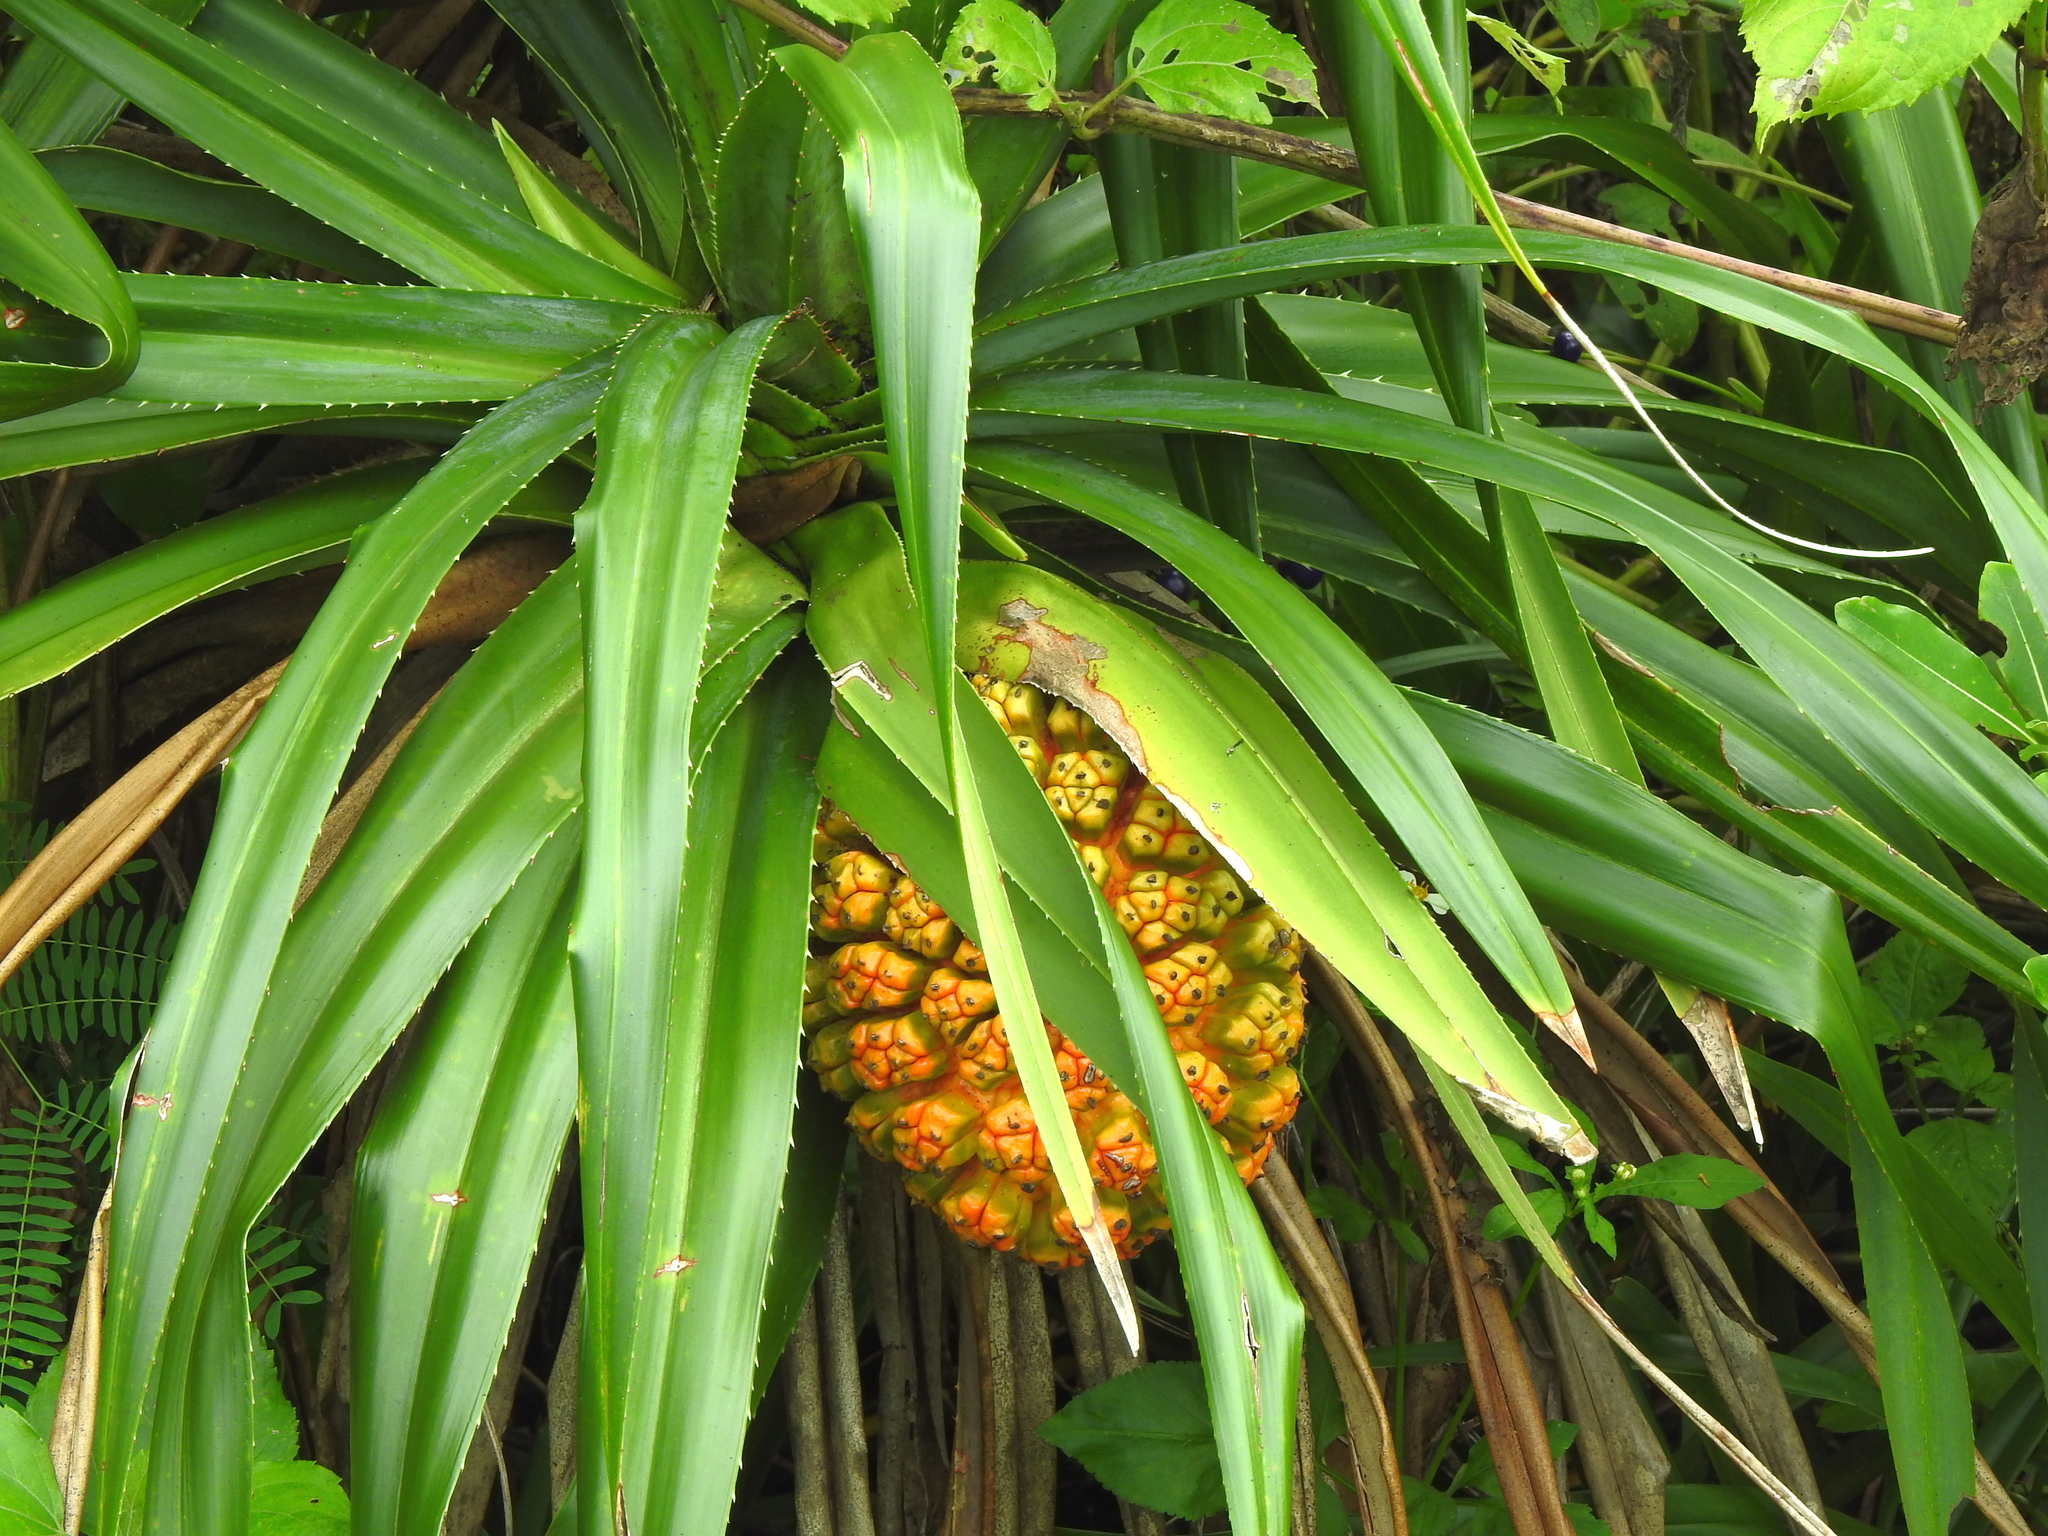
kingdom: Plantae
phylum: Tracheophyta
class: Liliopsida
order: Pandanales
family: Pandanaceae
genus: Pandanus
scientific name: Pandanus odorifer
